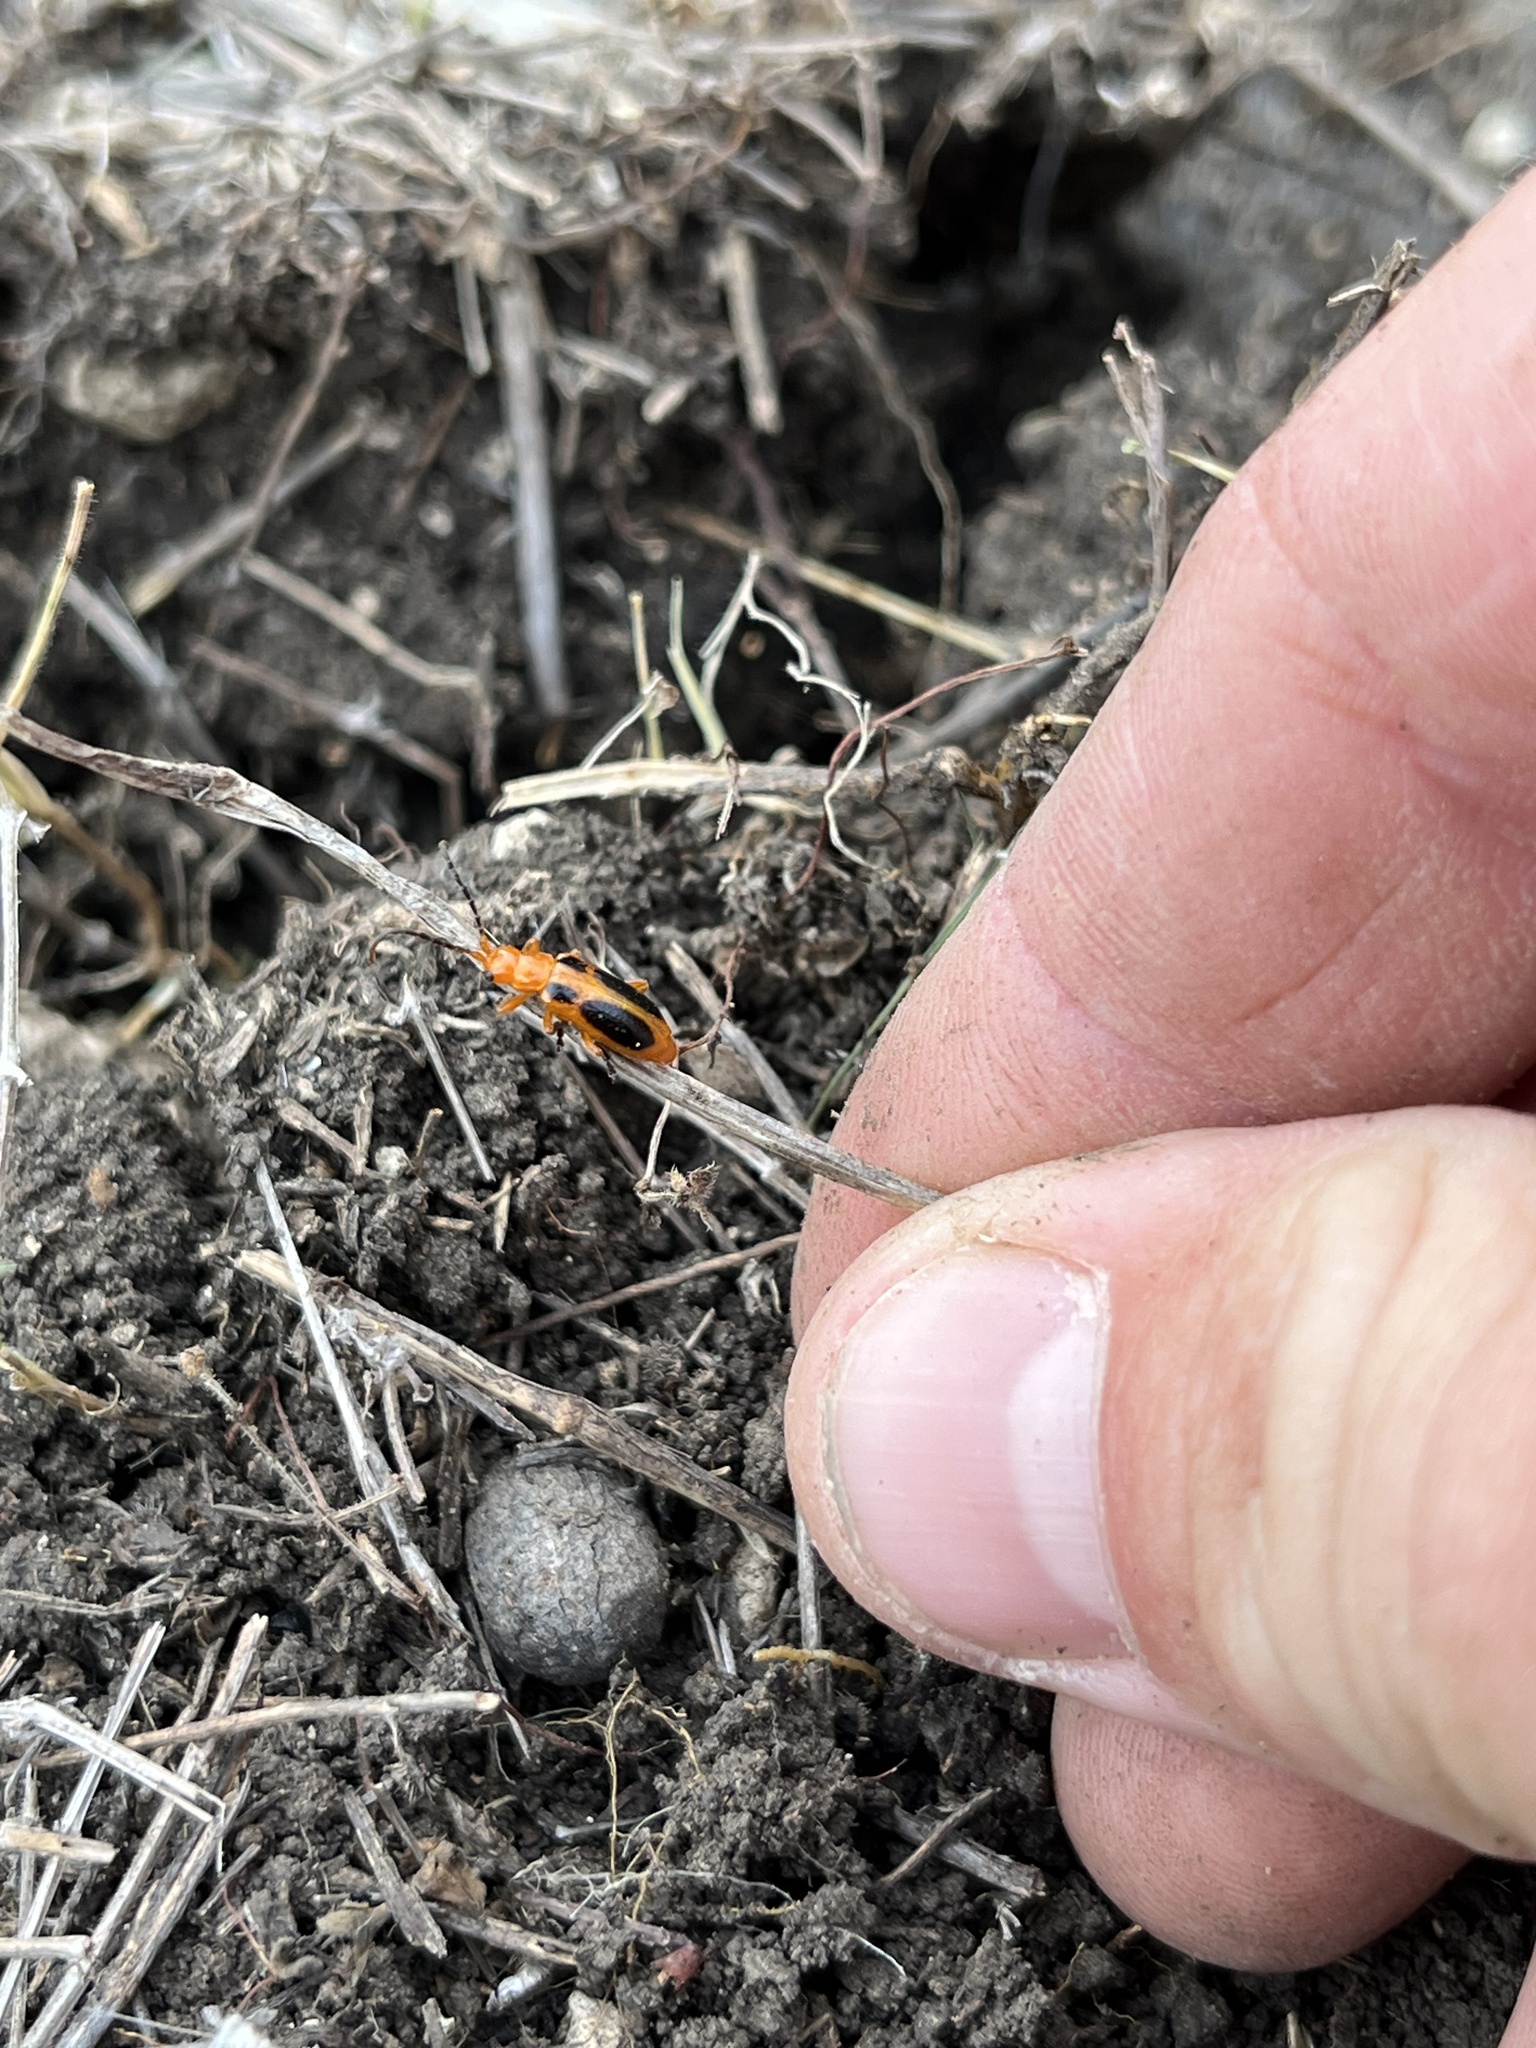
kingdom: Animalia
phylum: Arthropoda
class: Insecta
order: Coleoptera
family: Chrysomelidae
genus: Phyllobrotica
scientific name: Phyllobrotica sororia
